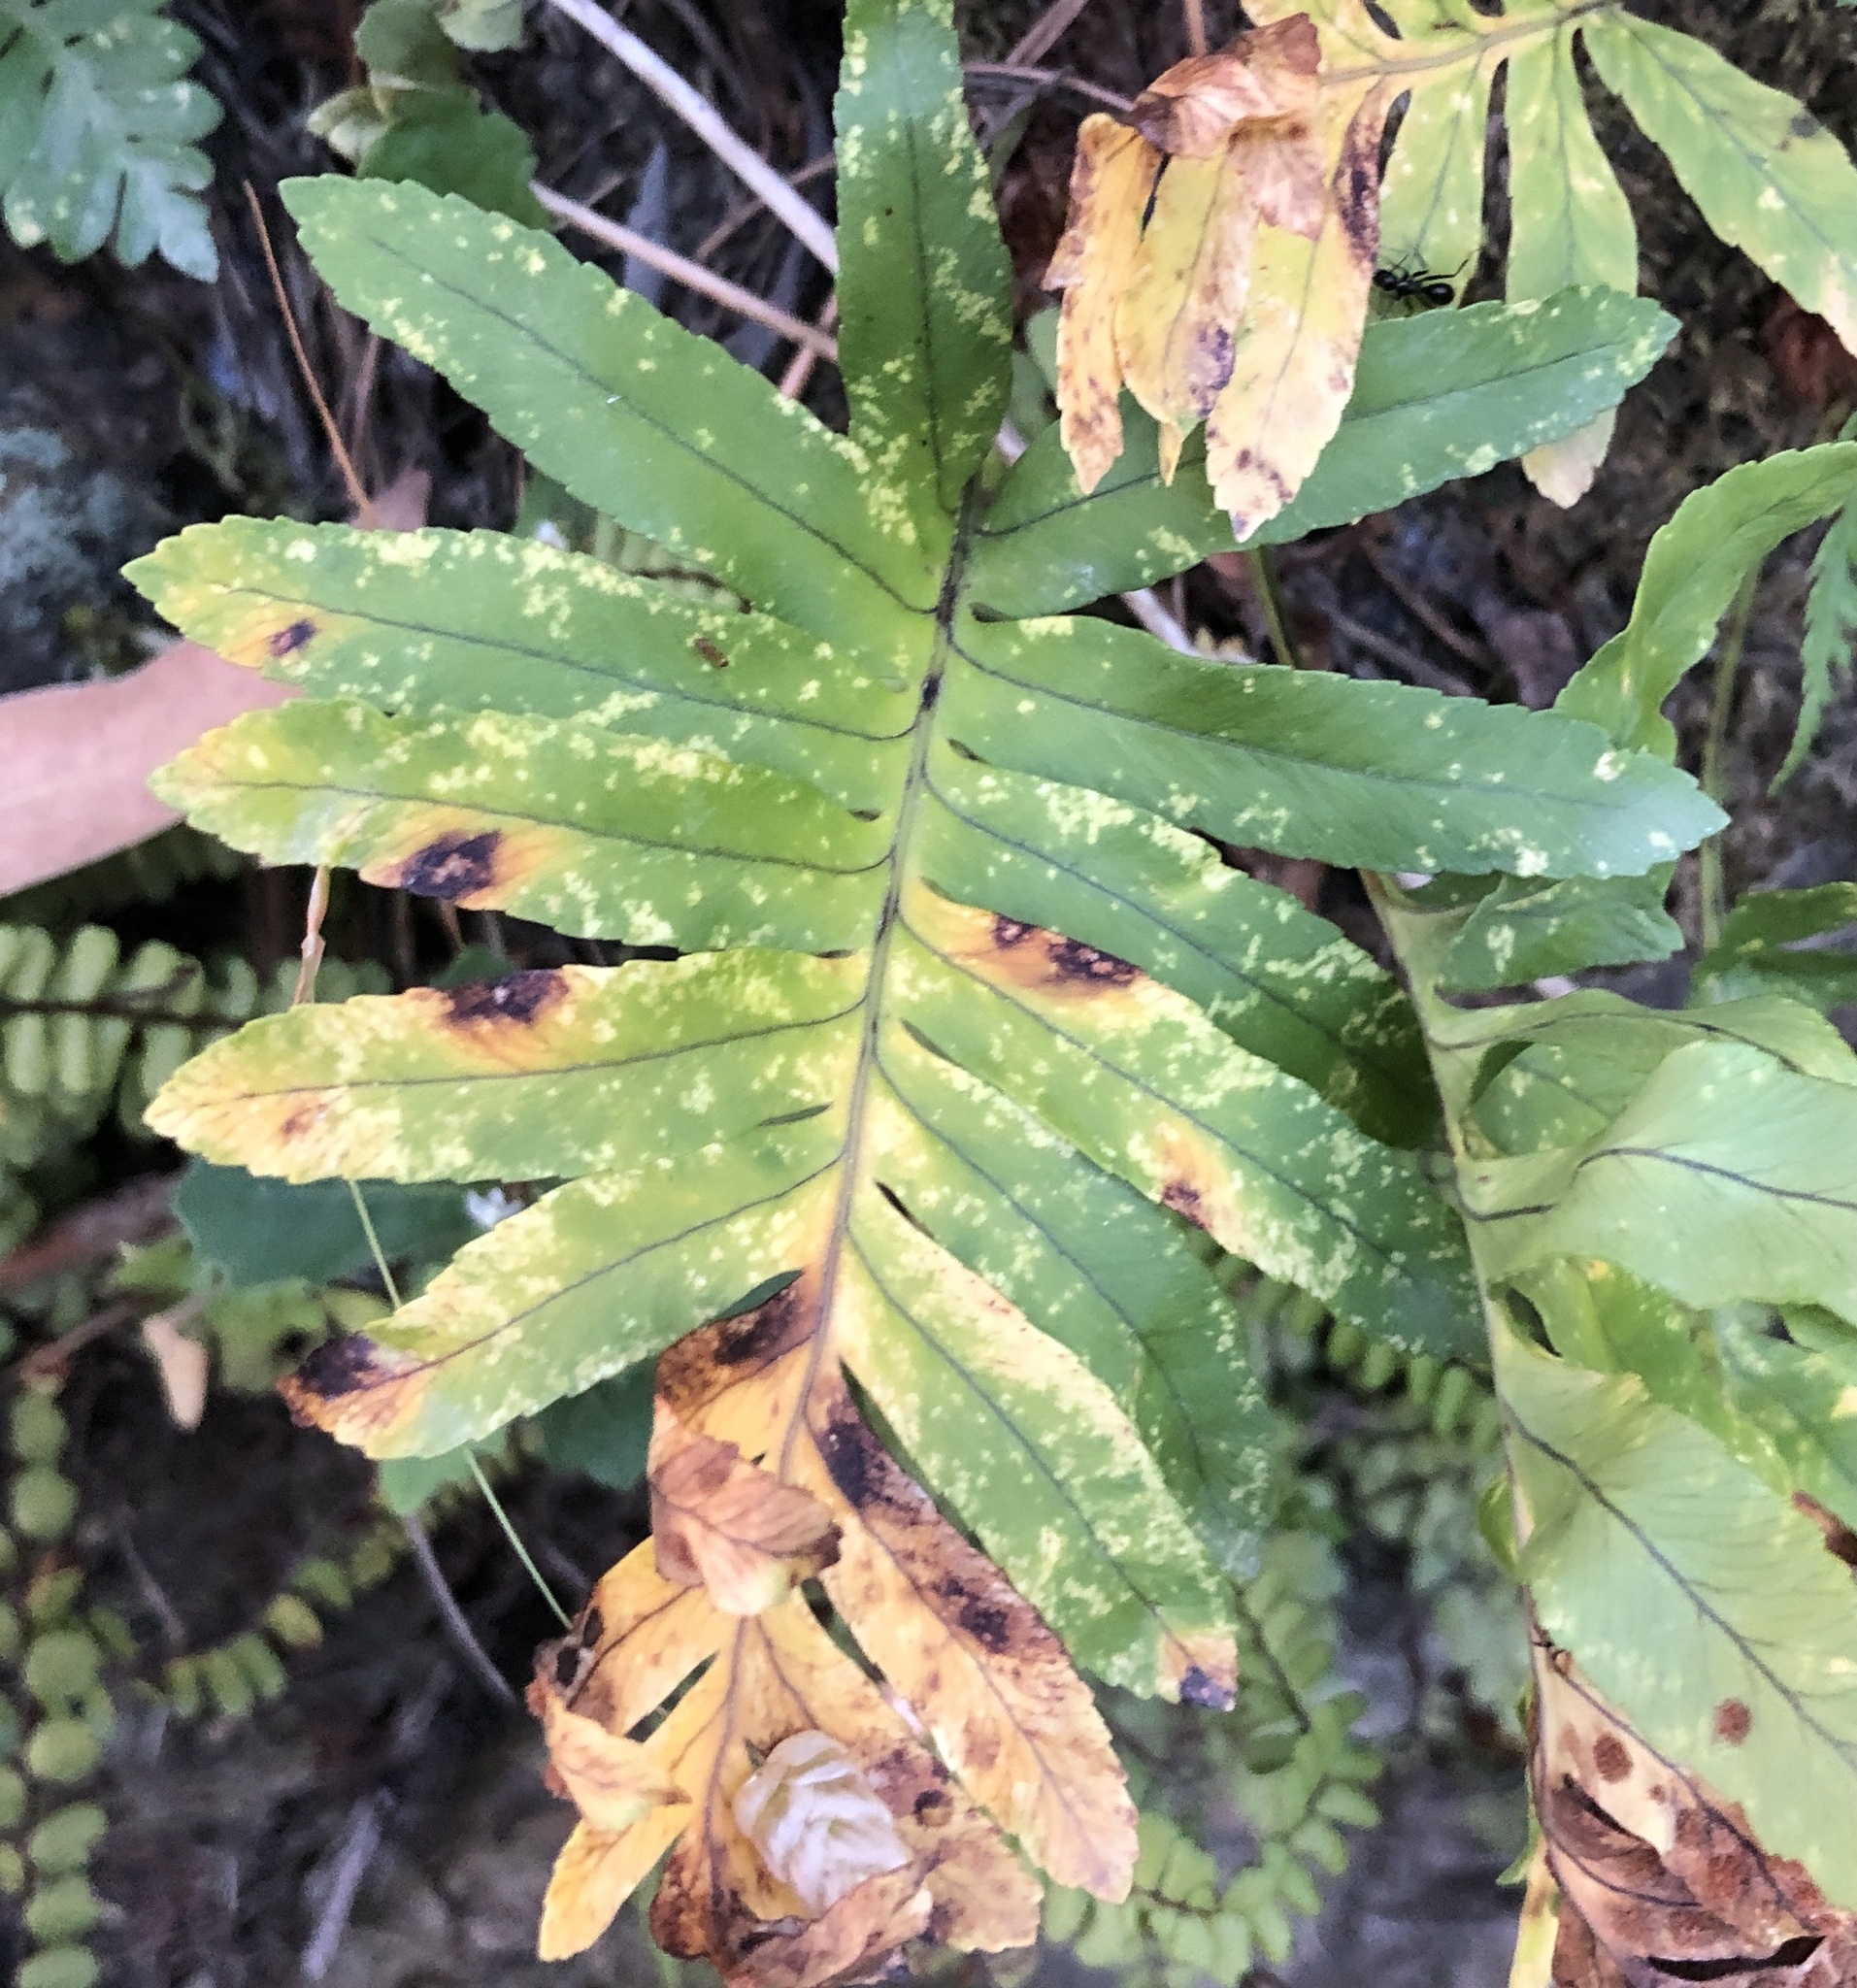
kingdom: Plantae
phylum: Tracheophyta
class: Polypodiopsida
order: Polypodiales
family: Polypodiaceae
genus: Polypodium
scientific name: Polypodium cambricum
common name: Southern polypody
